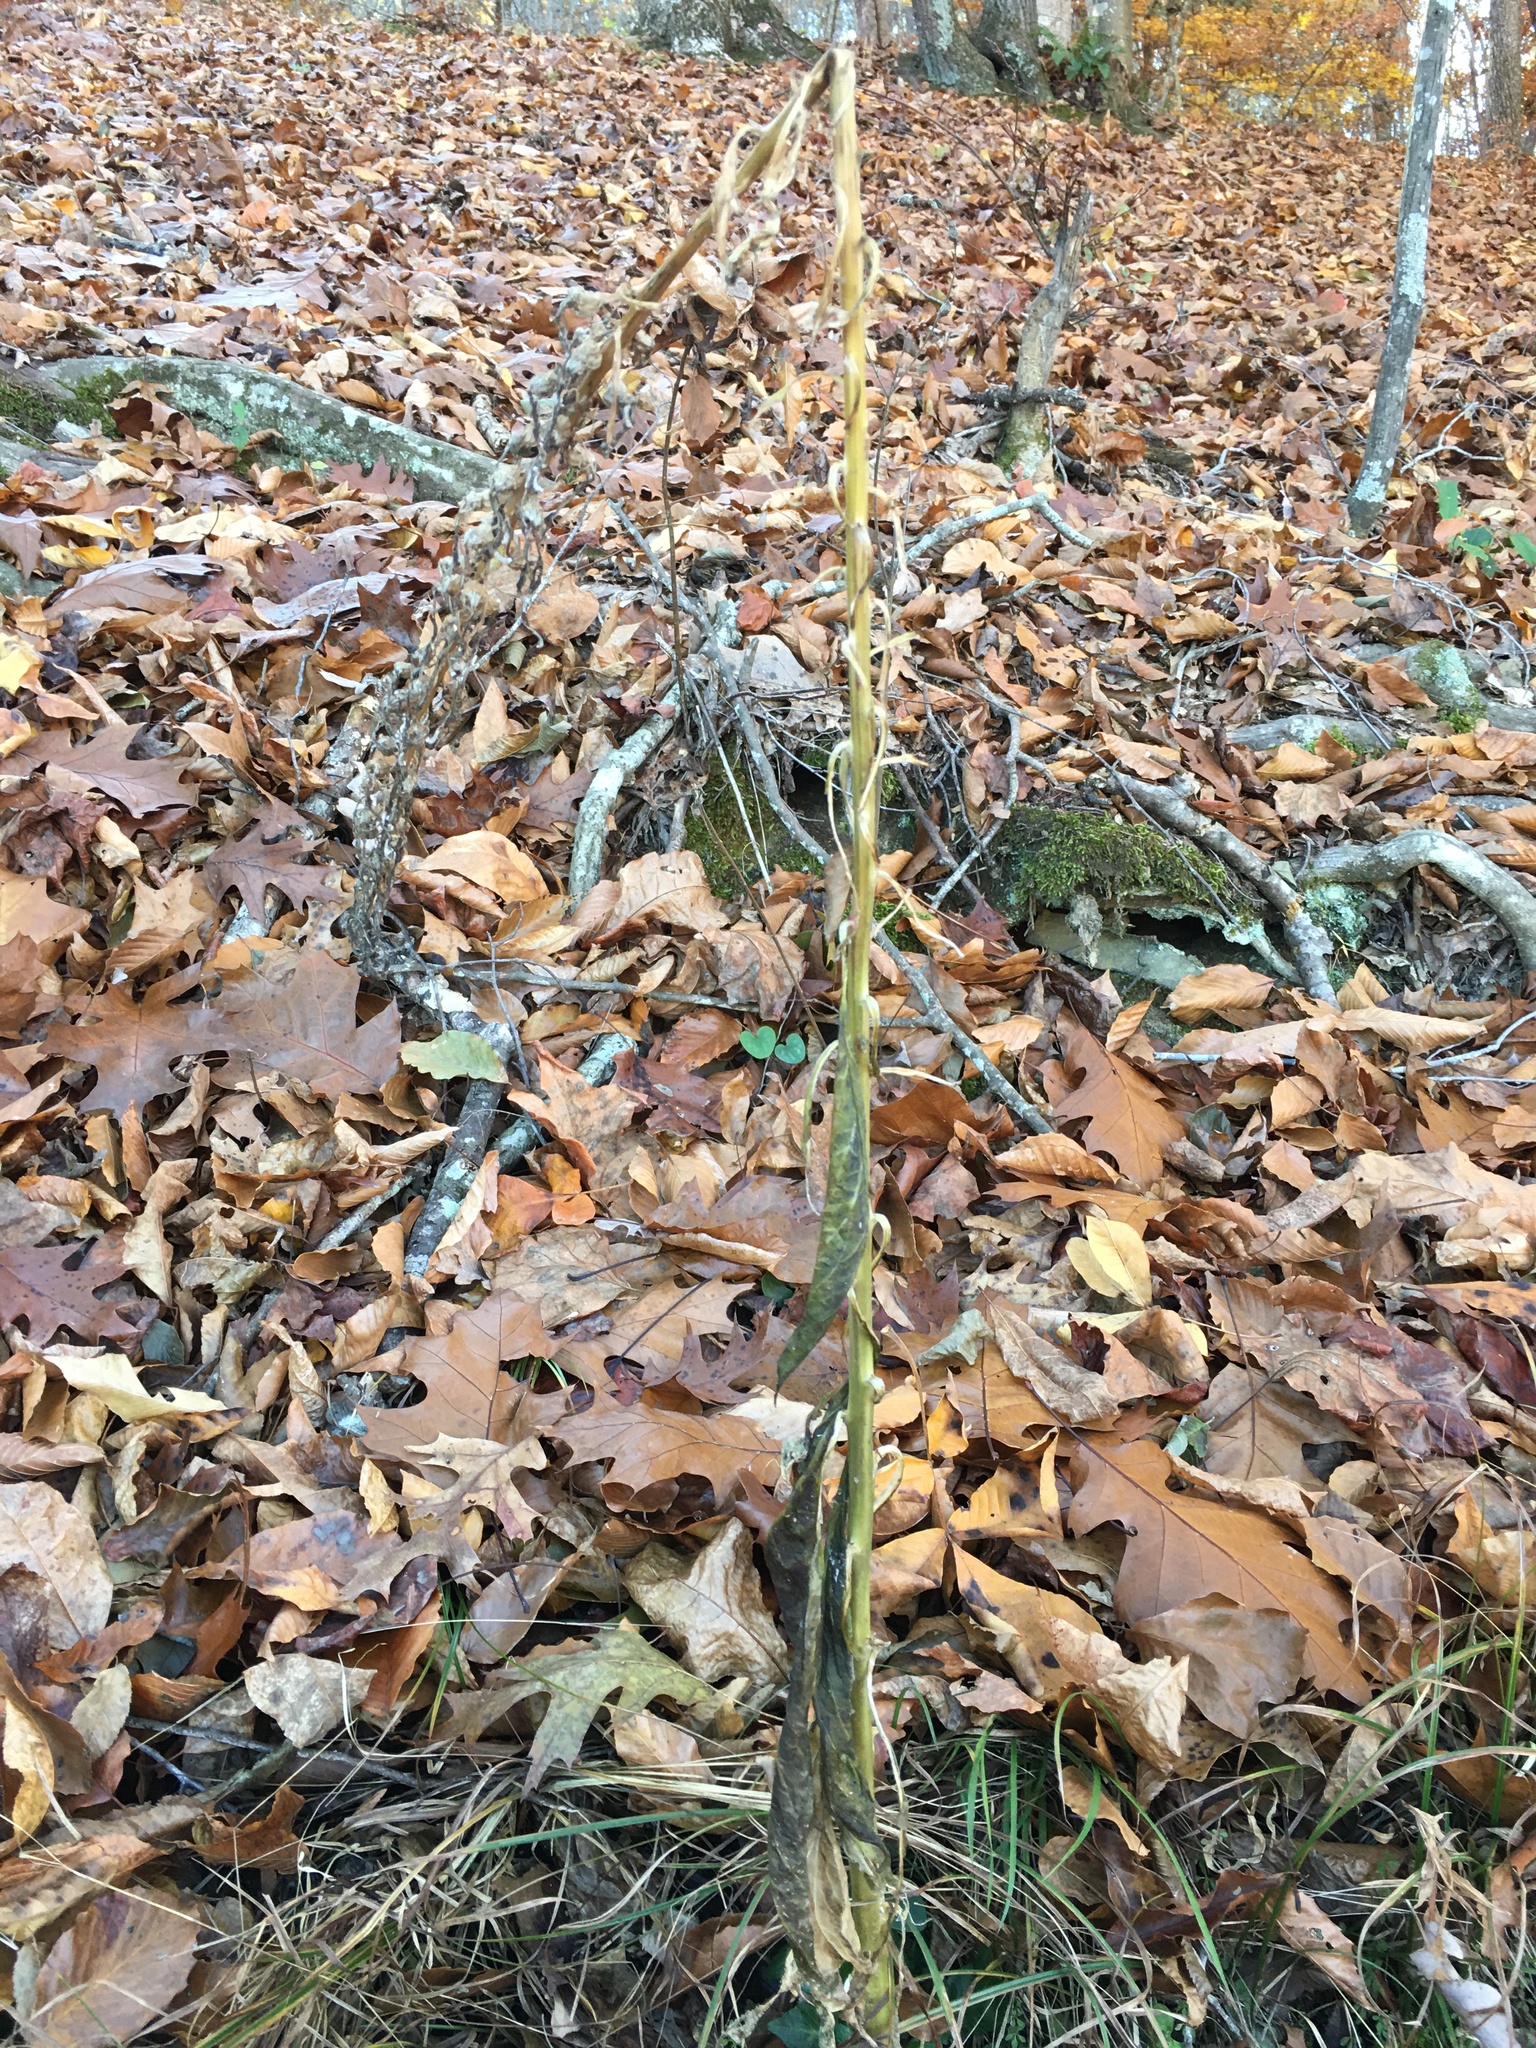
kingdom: Plantae
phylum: Tracheophyta
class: Magnoliopsida
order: Asterales
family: Campanulaceae
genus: Lobelia
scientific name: Lobelia cardinalis
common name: Cardinal flower
